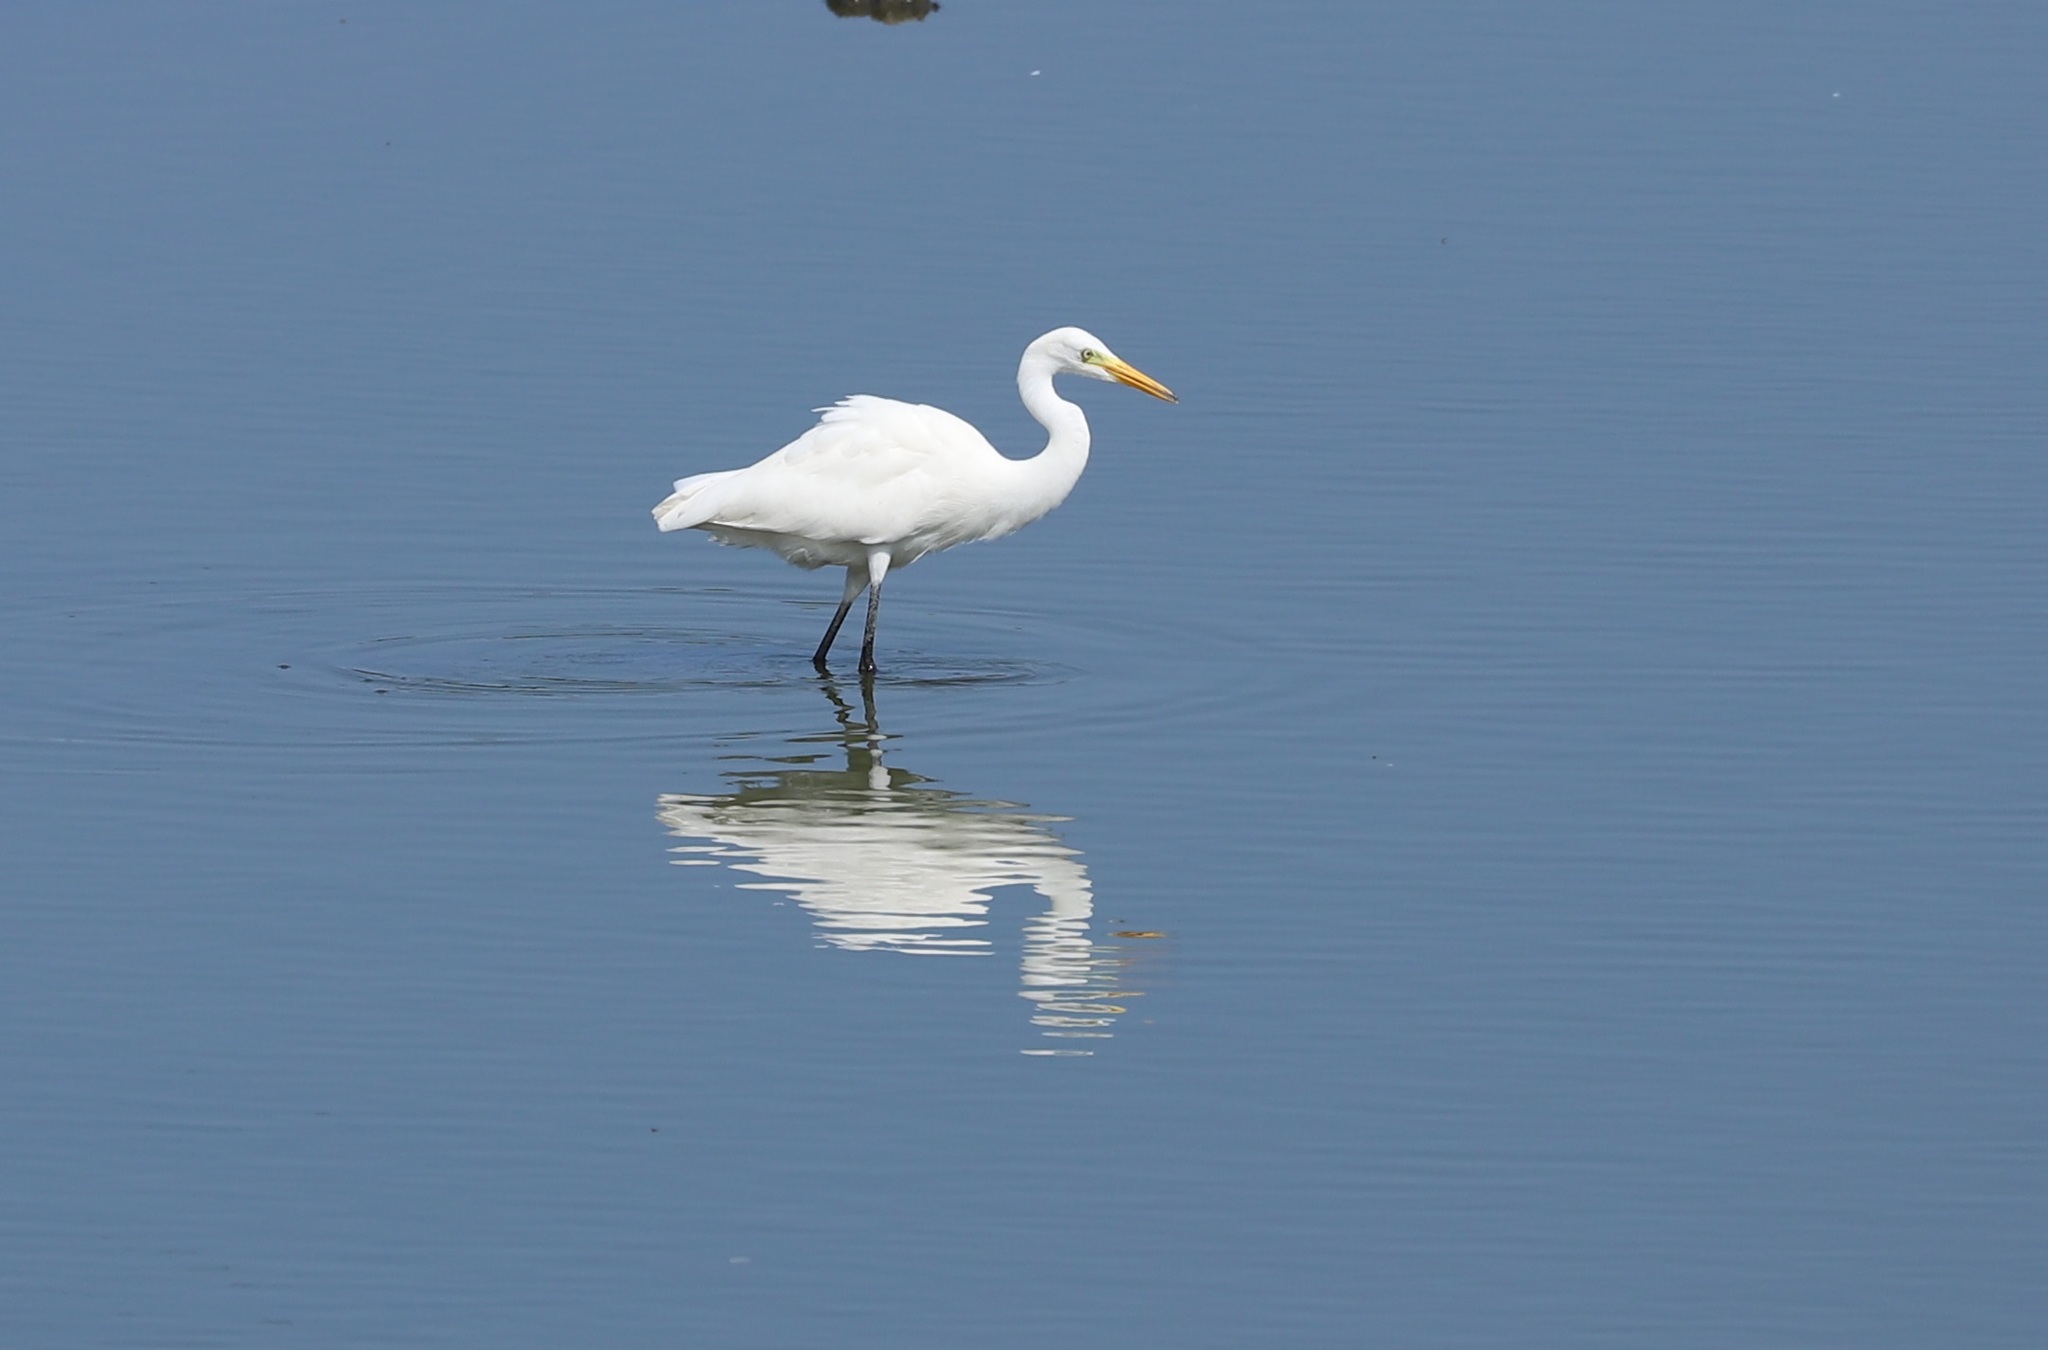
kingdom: Animalia
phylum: Chordata
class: Aves
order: Pelecaniformes
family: Ardeidae
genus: Egretta
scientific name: Egretta intermedia
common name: Intermediate egret
